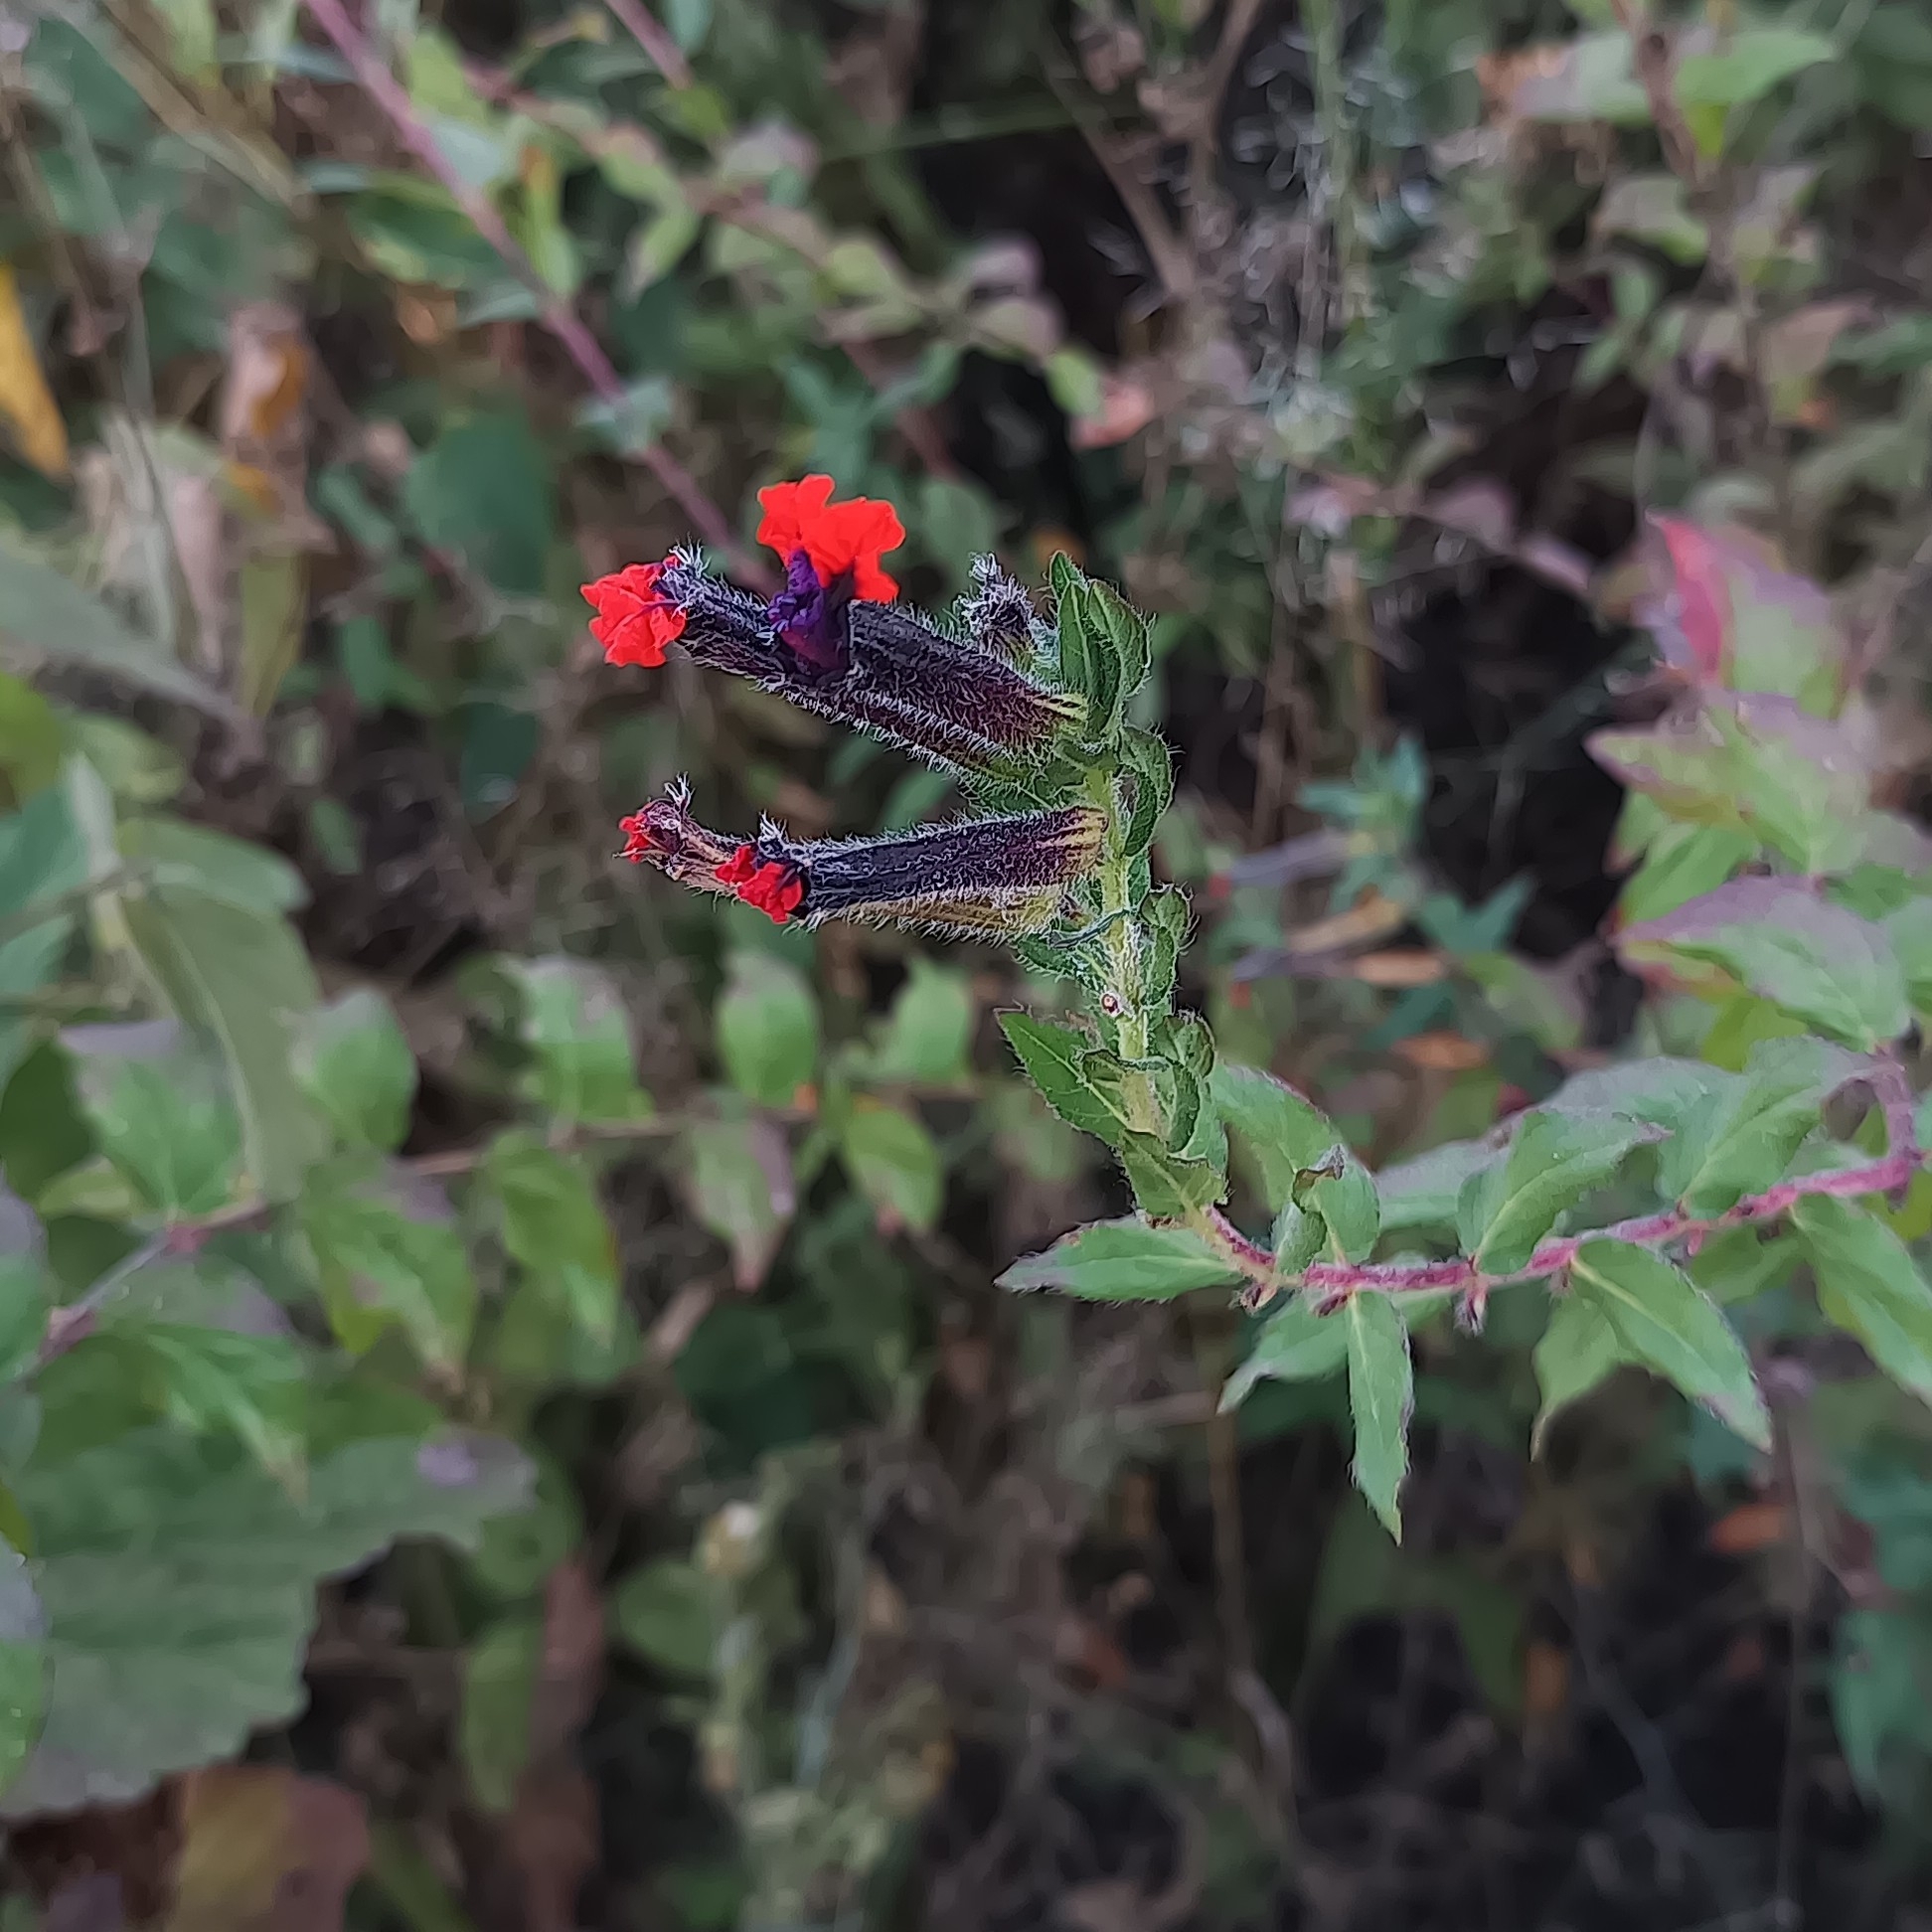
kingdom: Plantae
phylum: Tracheophyta
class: Magnoliopsida
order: Myrtales
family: Lythraceae
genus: Cuphea
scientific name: Cuphea llavea
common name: Tiny-mice
